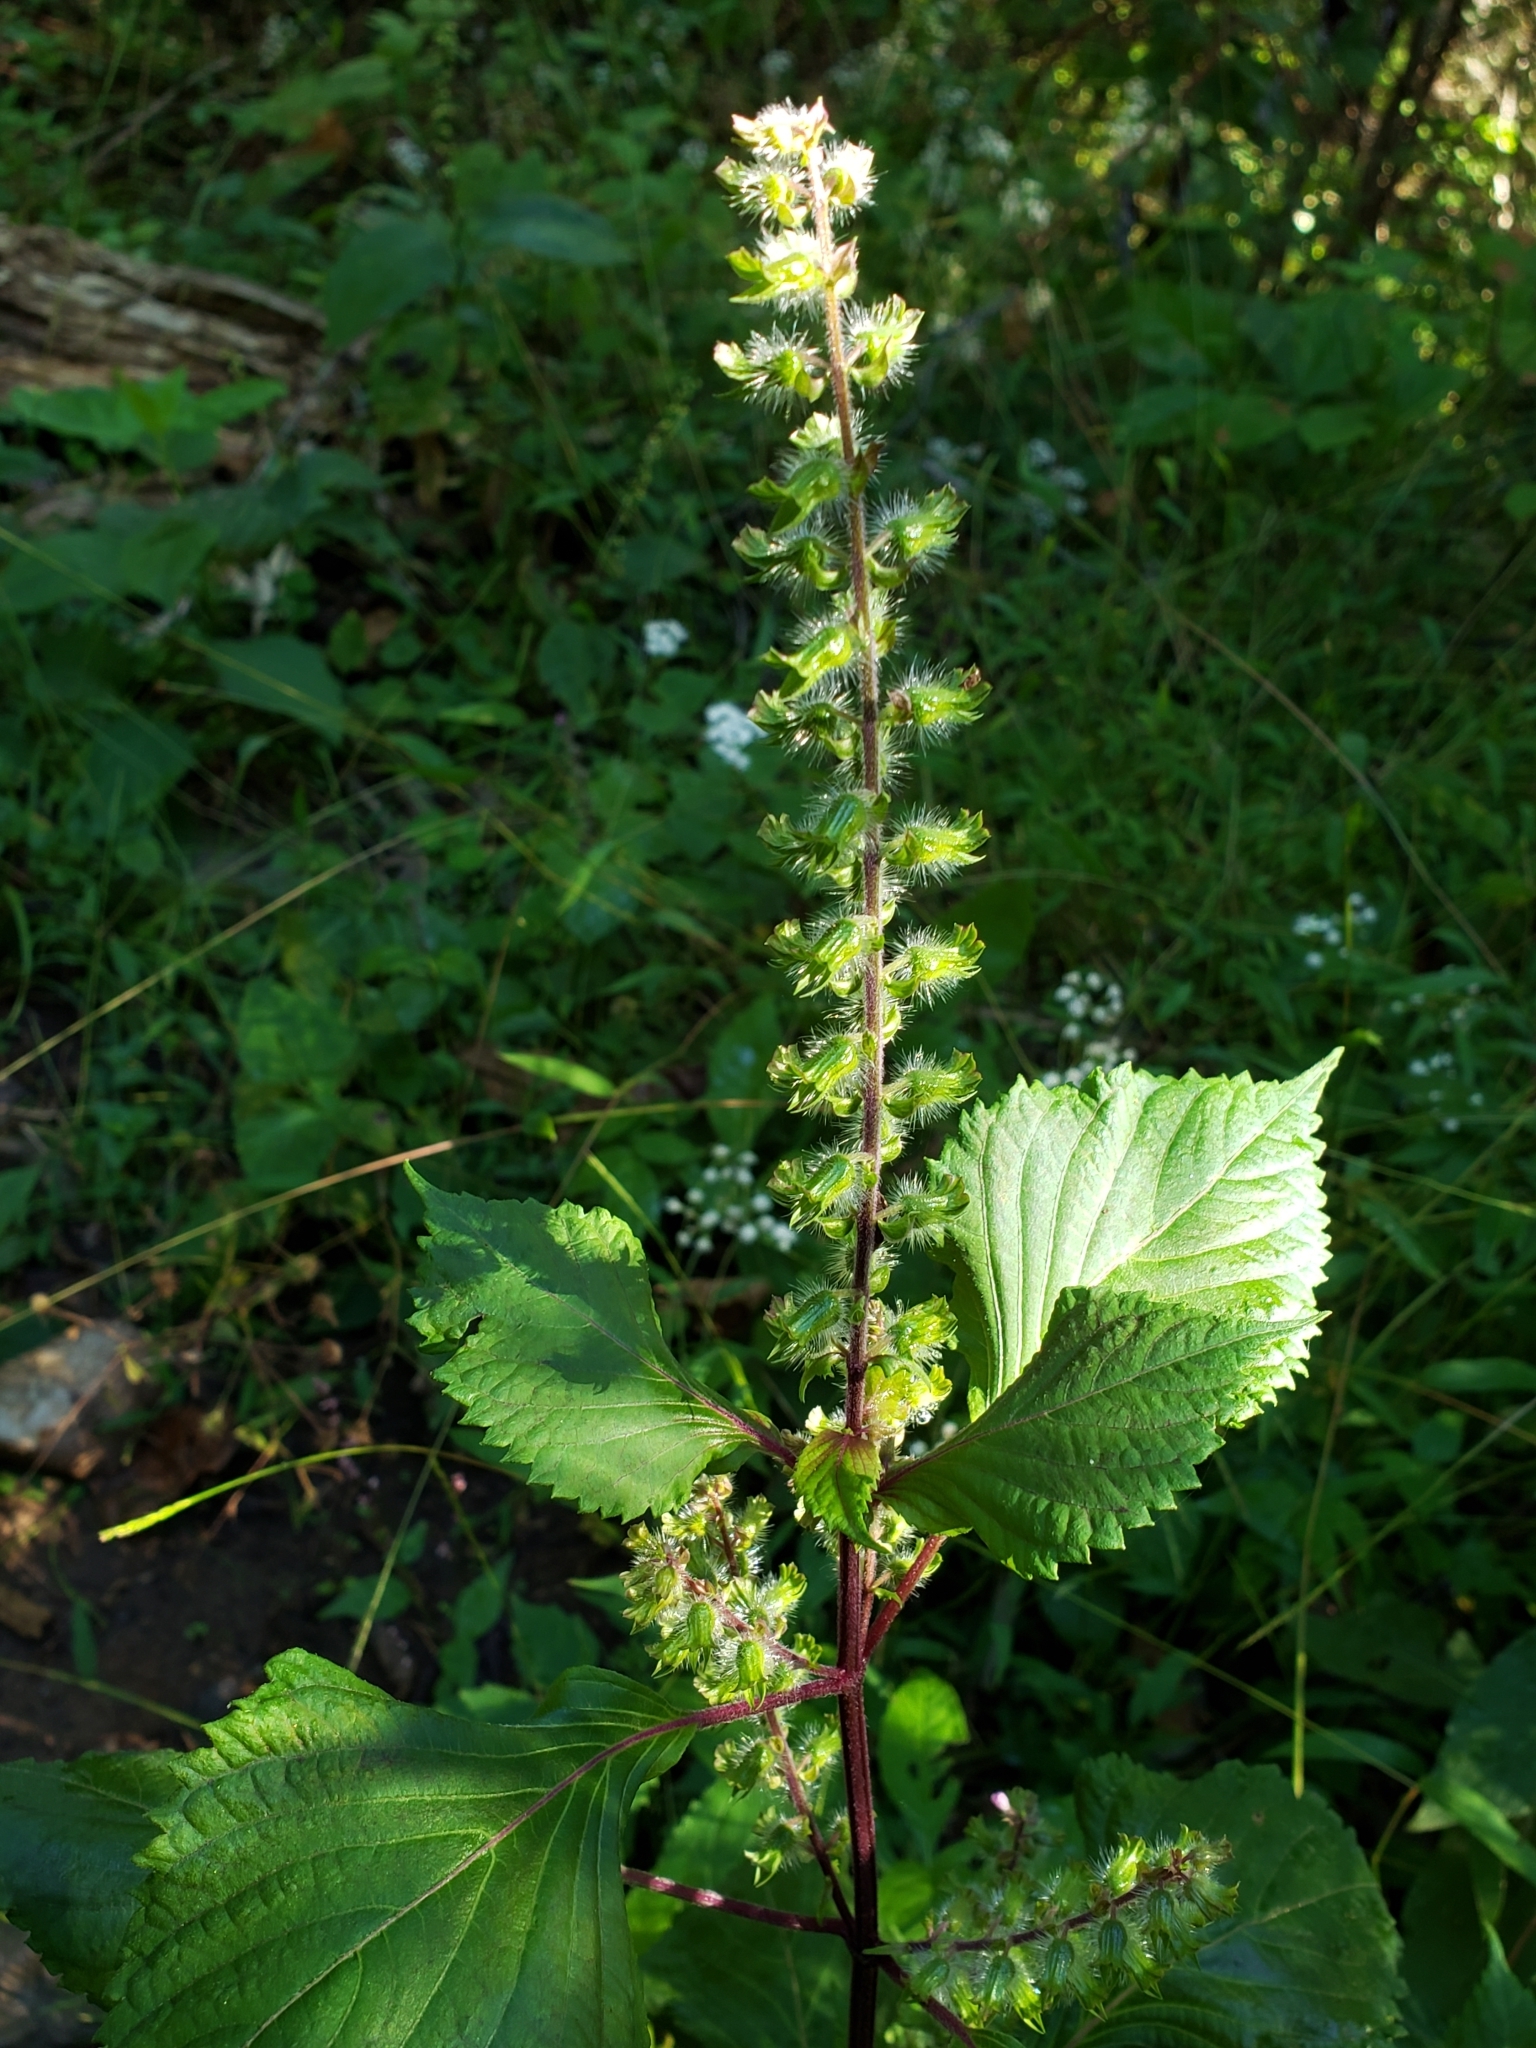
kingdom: Plantae
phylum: Tracheophyta
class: Magnoliopsida
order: Lamiales
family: Lamiaceae
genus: Perilla
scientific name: Perilla frutescens
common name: Perilla
